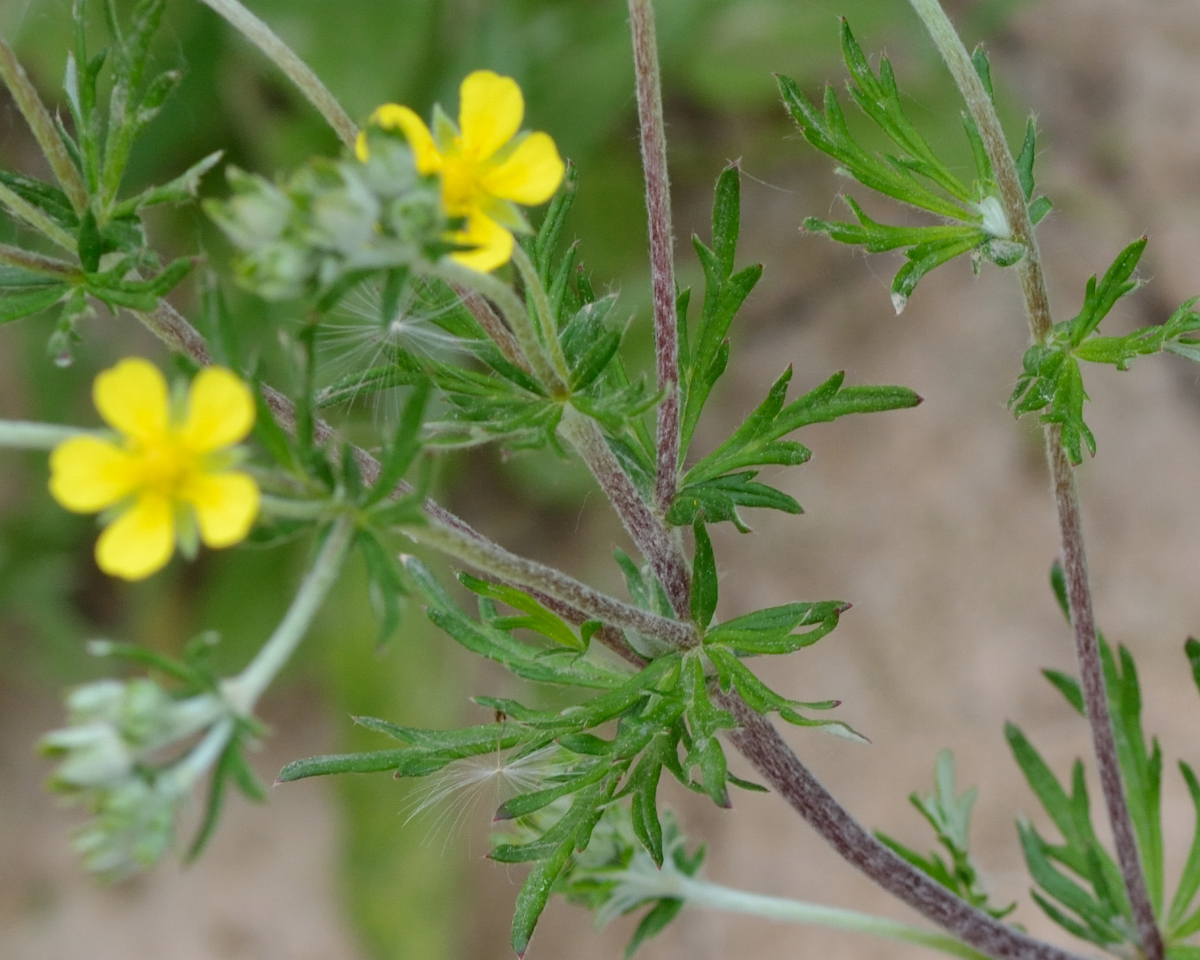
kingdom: Plantae
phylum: Tracheophyta
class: Magnoliopsida
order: Rosales
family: Rosaceae
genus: Potentilla
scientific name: Potentilla argentea
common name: Hoary cinquefoil
